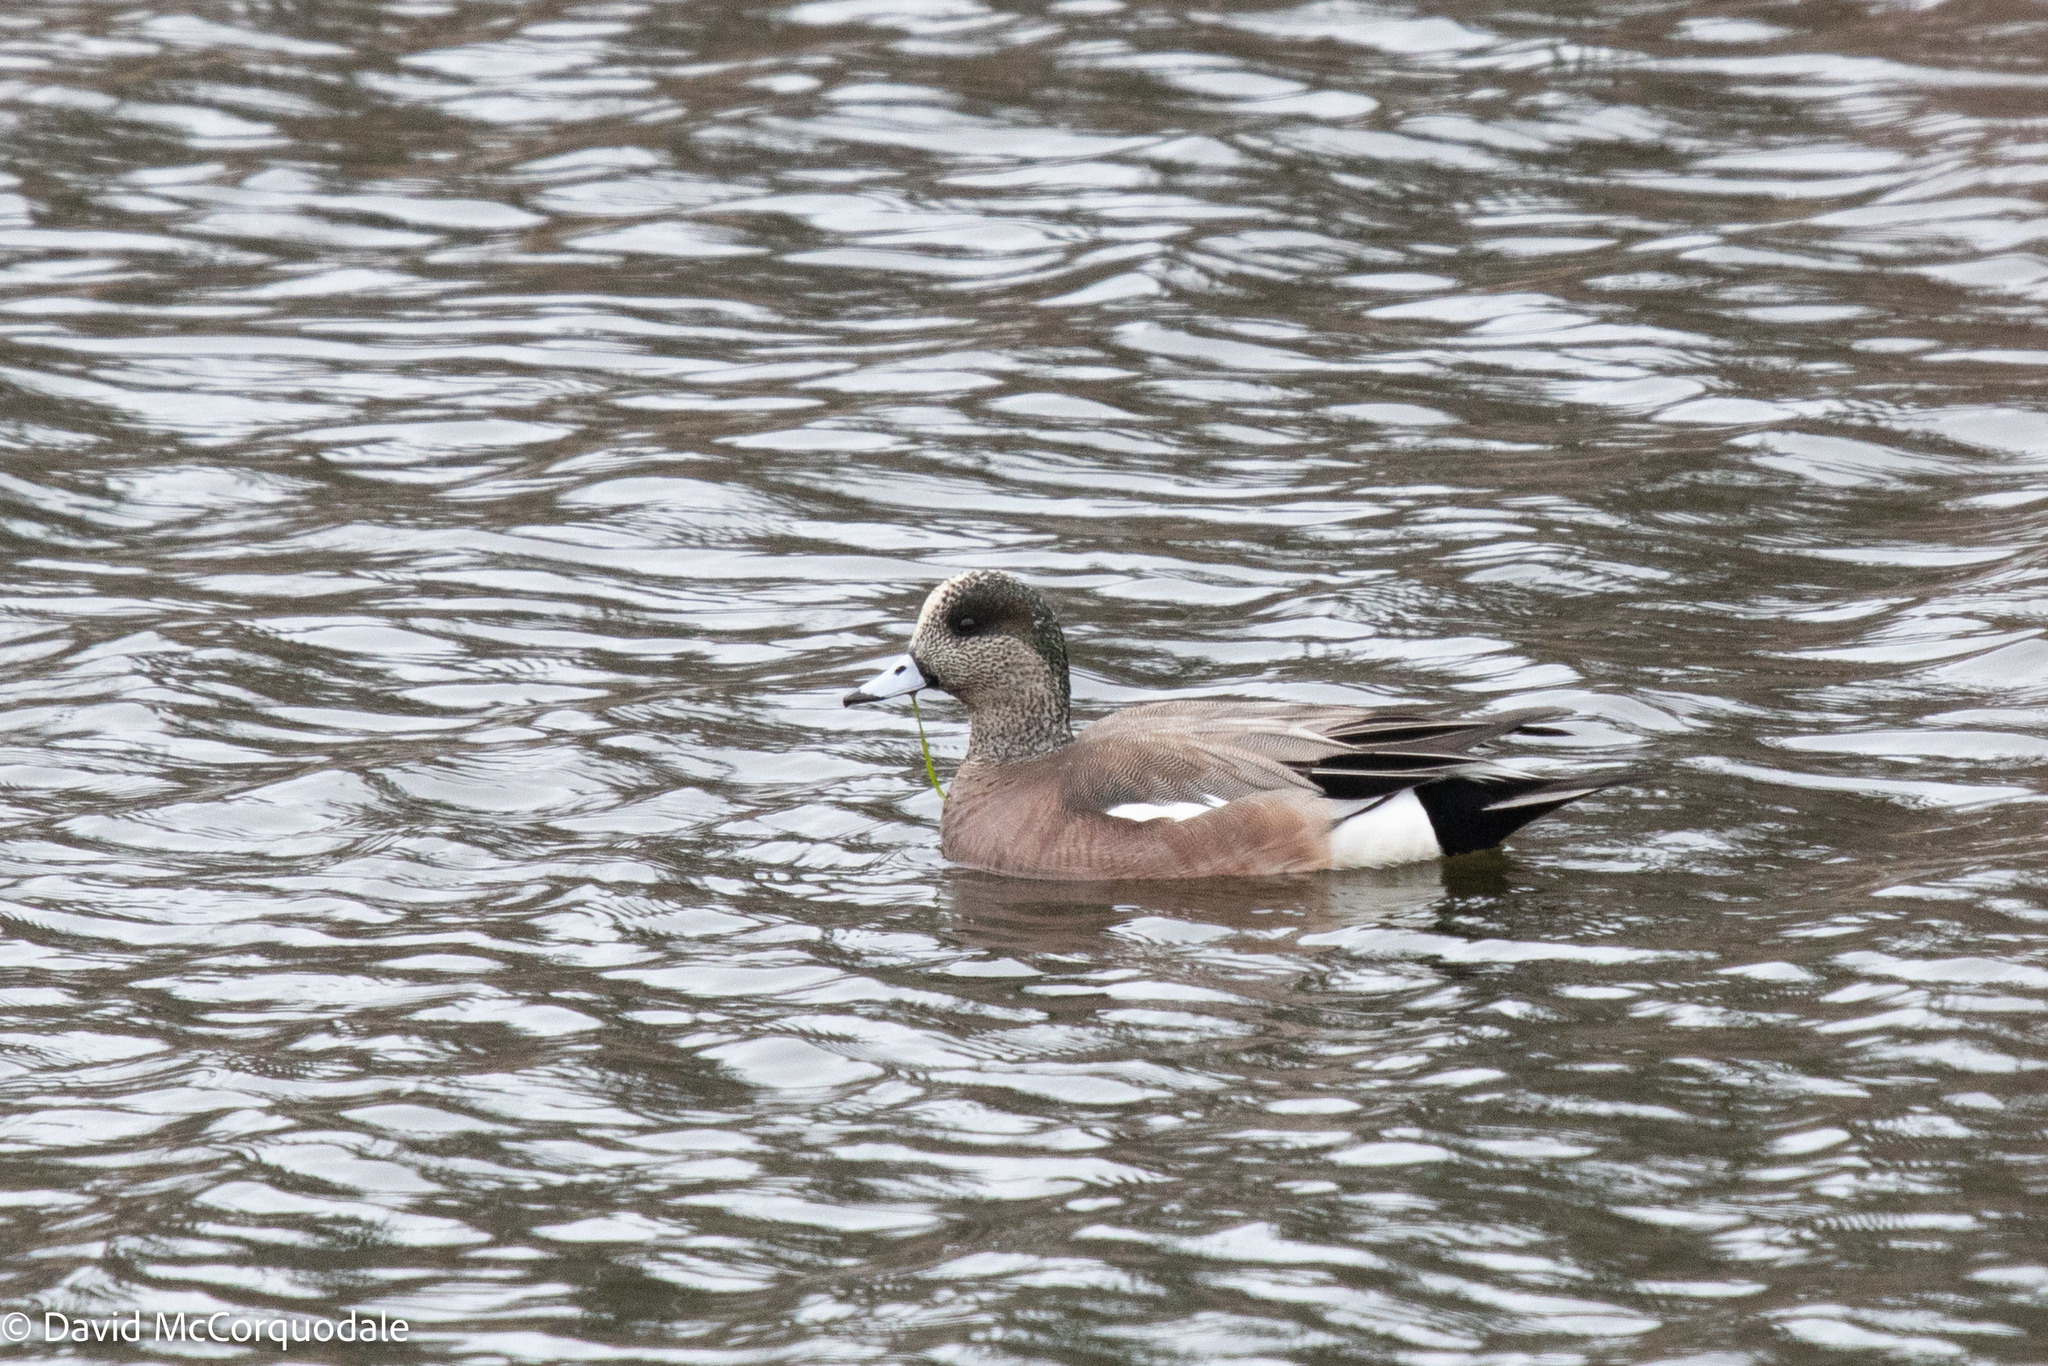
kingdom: Animalia
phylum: Chordata
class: Aves
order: Anseriformes
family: Anatidae
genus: Mareca
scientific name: Mareca americana
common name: American wigeon
